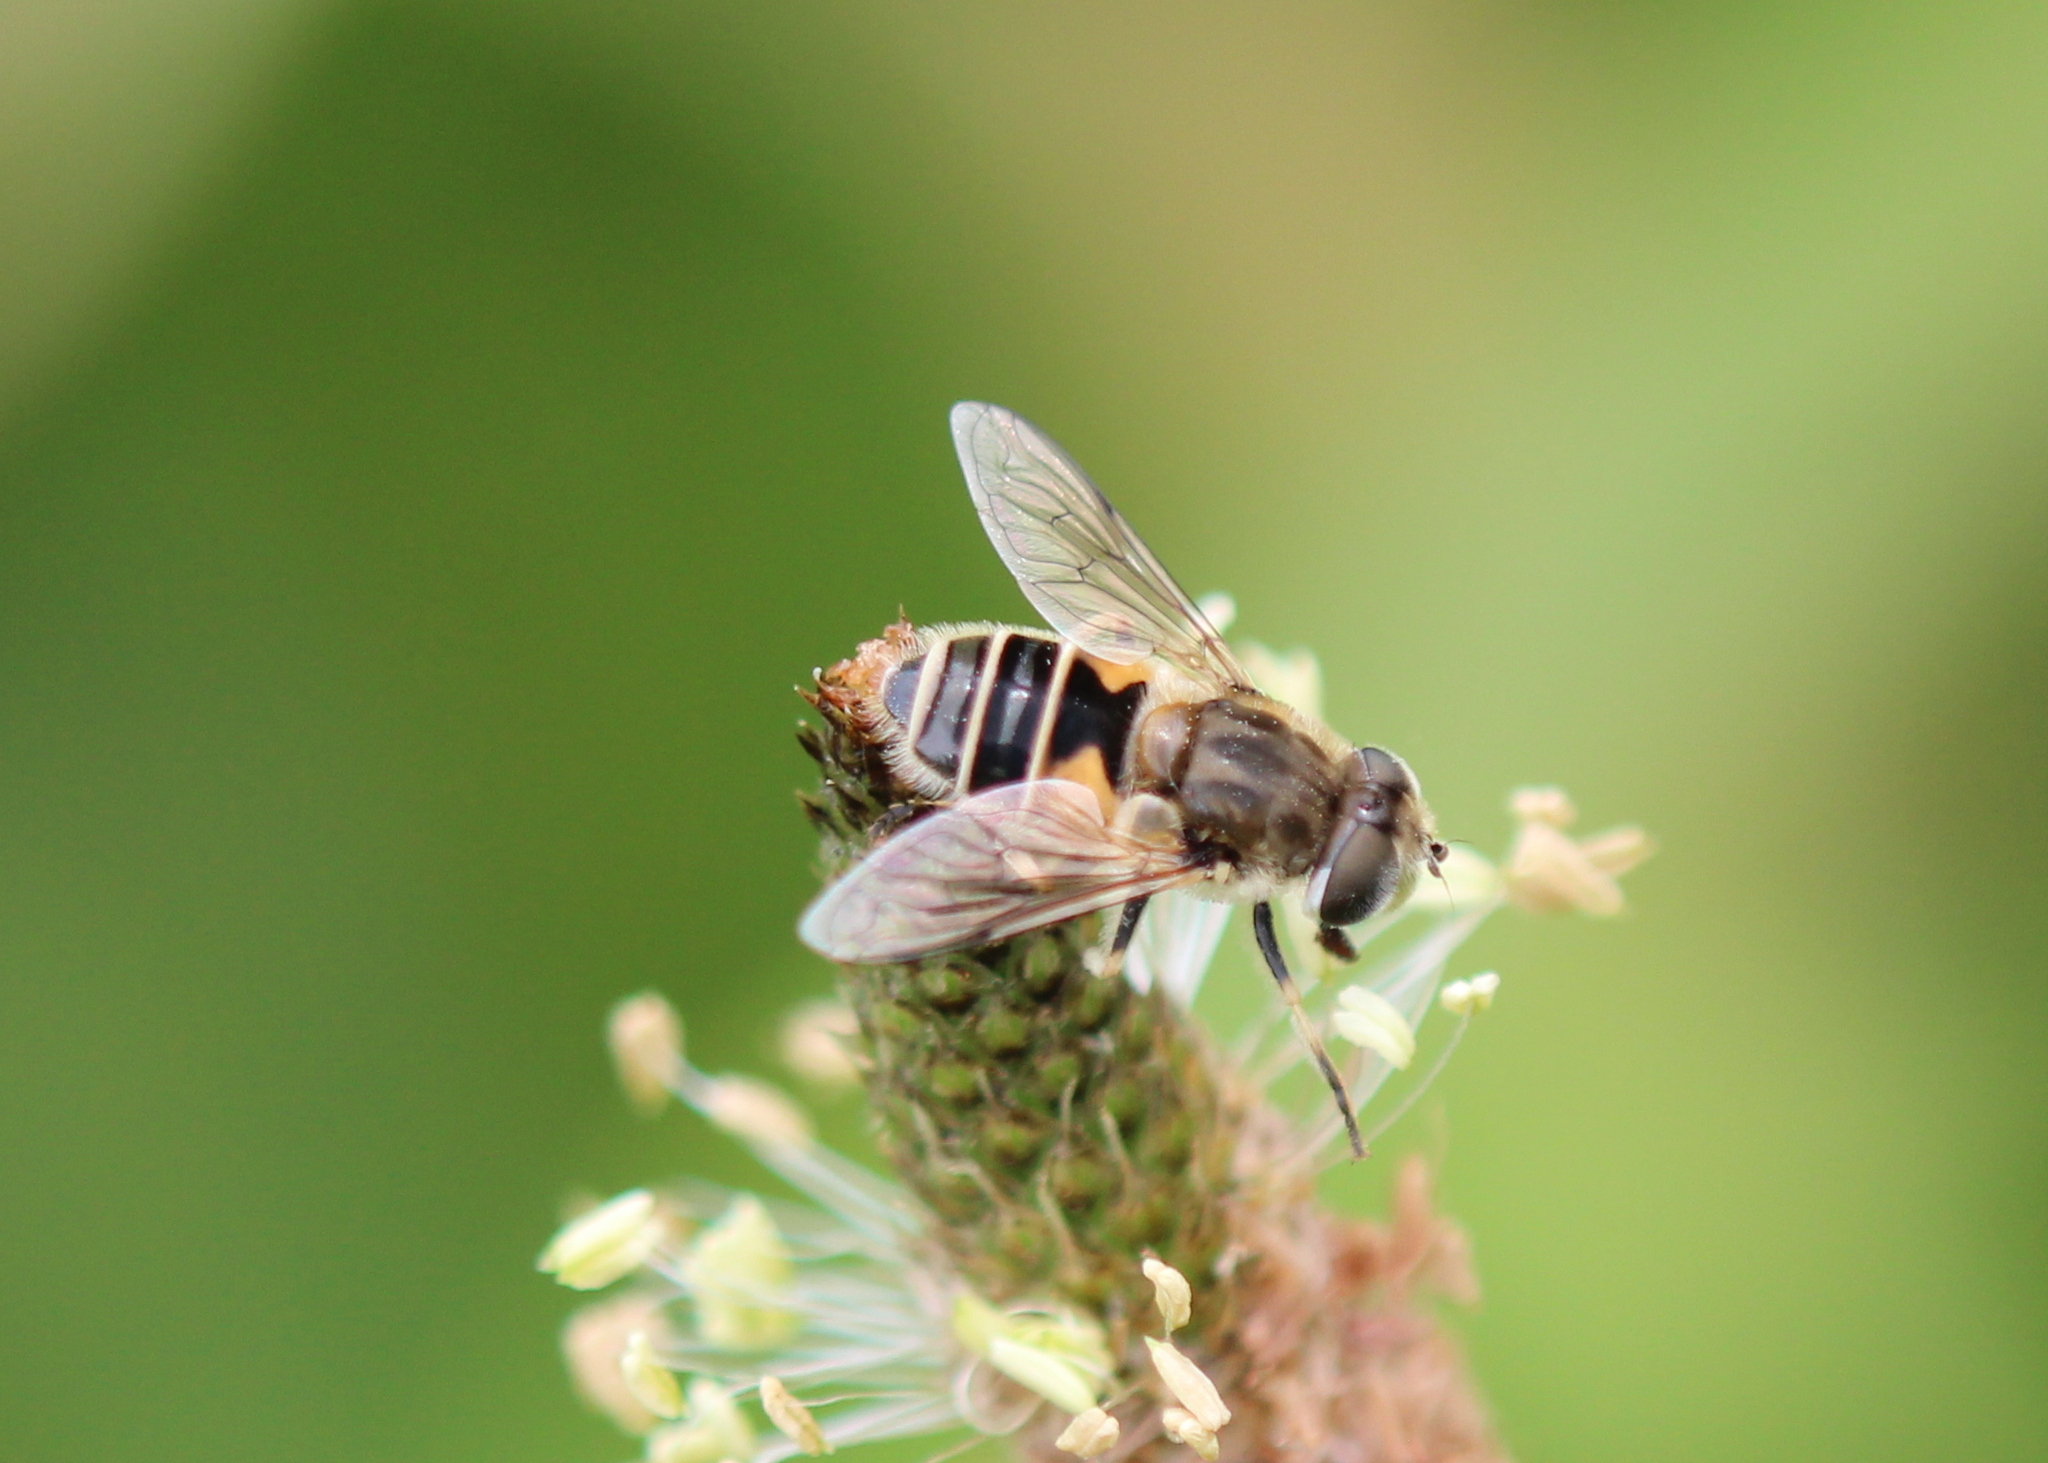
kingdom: Animalia
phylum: Arthropoda
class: Insecta
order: Diptera
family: Syrphidae
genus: Eristalis
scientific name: Eristalis arbustorum
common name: Hover fly
